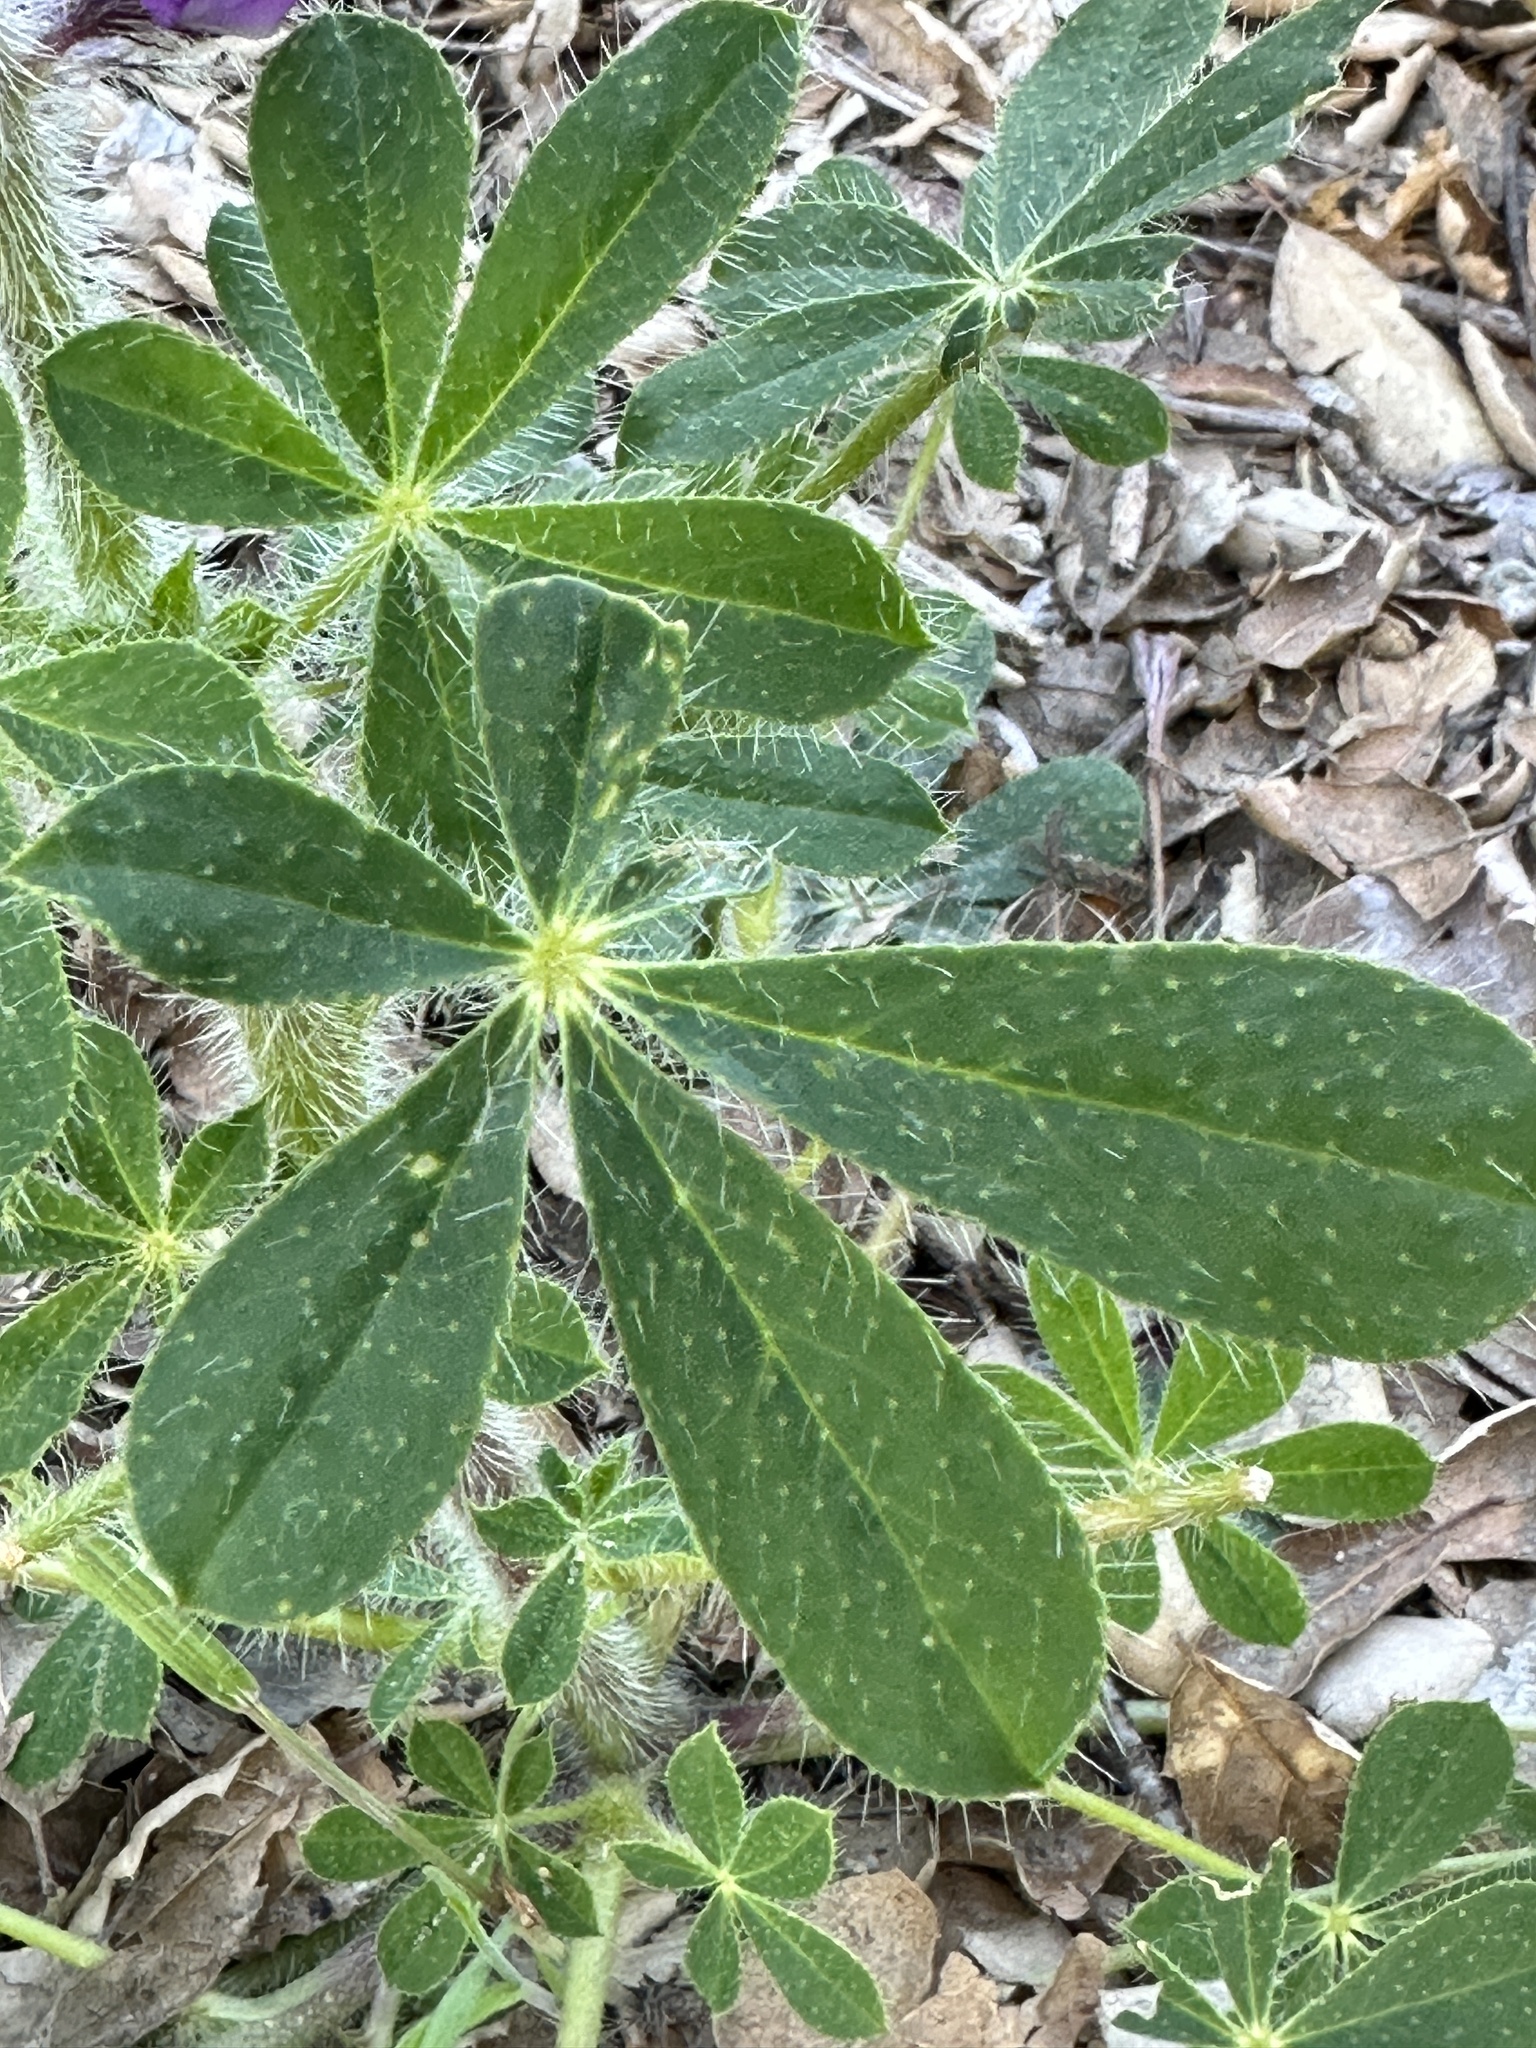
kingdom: Plantae
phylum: Tracheophyta
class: Magnoliopsida
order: Fabales
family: Fabaceae
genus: Lupinus
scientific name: Lupinus hirsutissimus
